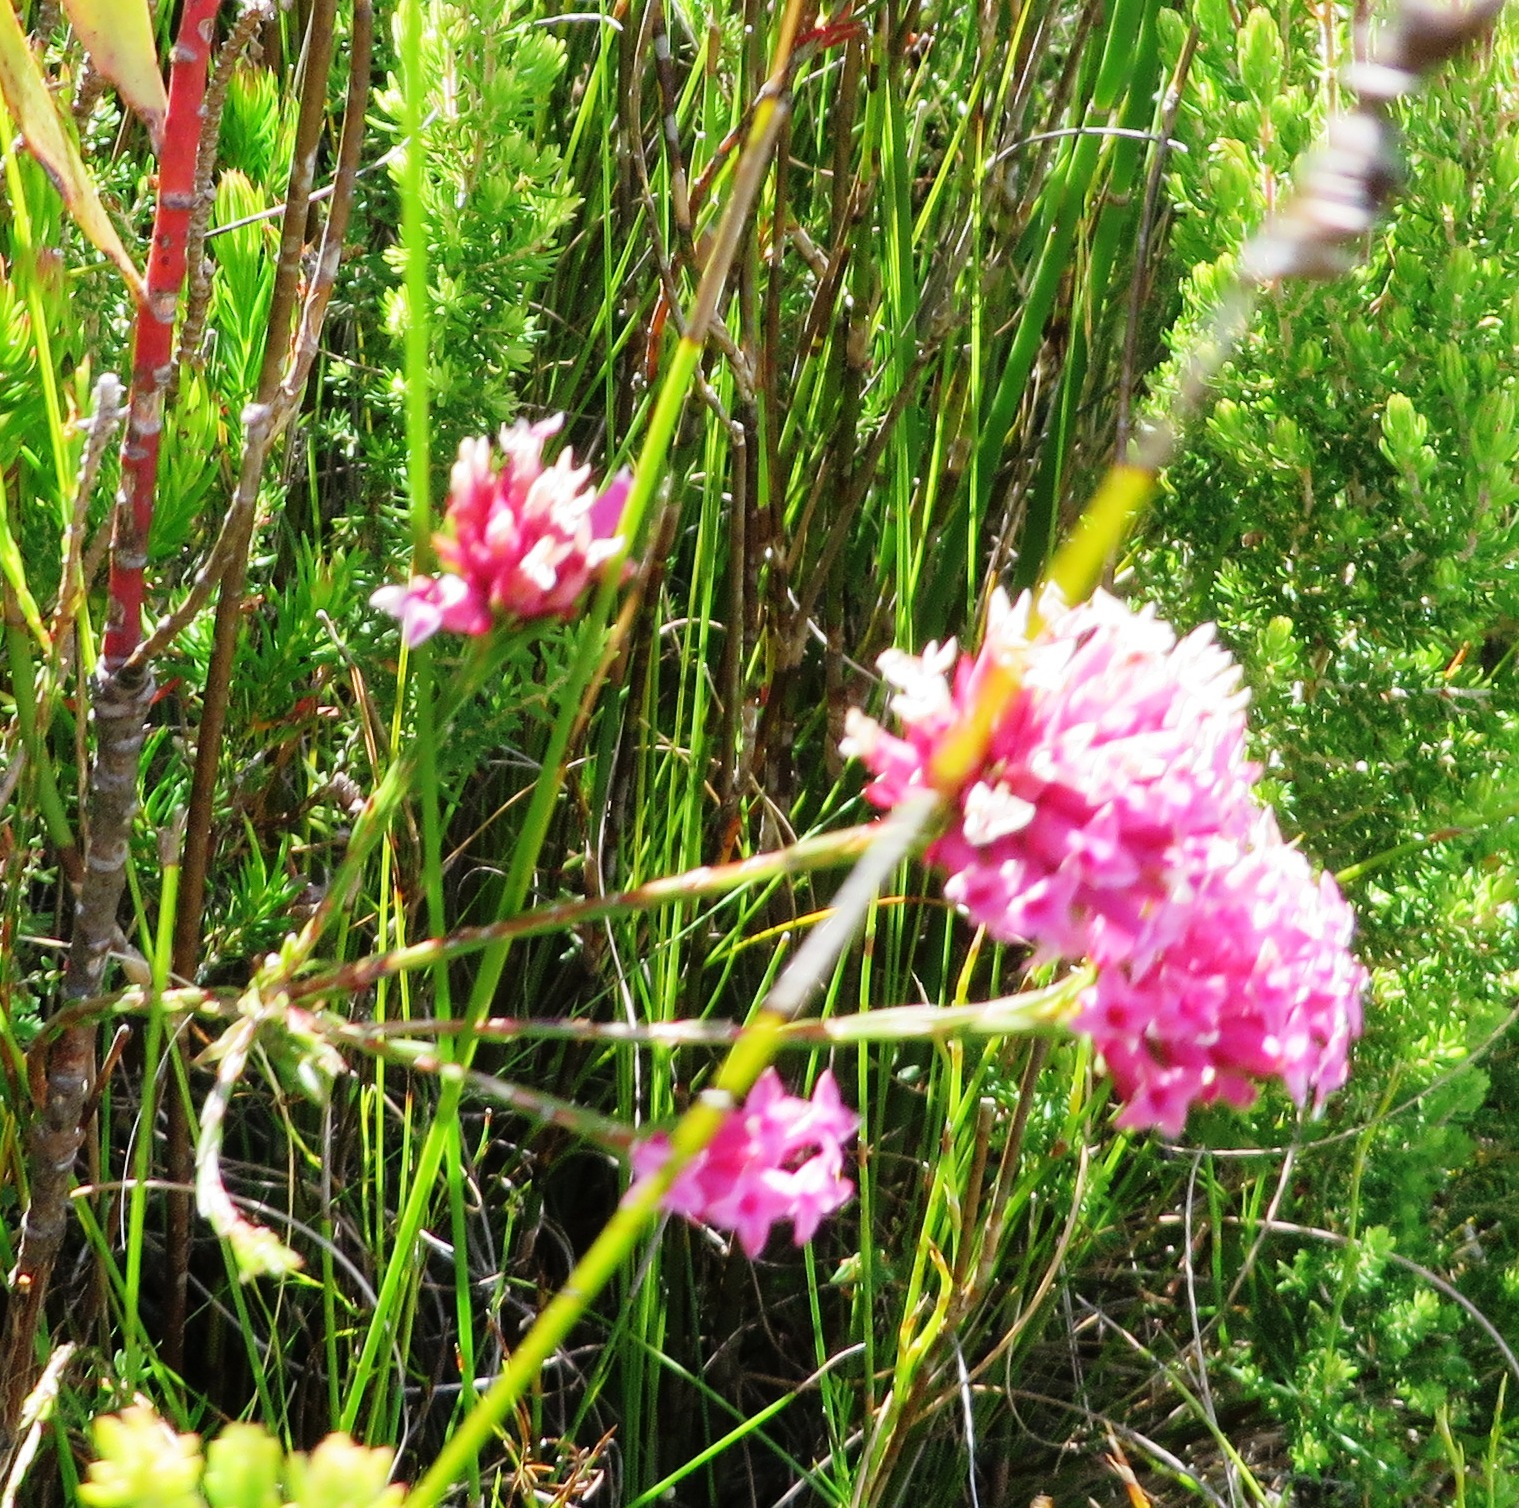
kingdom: Plantae
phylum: Tracheophyta
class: Magnoliopsida
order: Ericales
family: Ericaceae
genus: Erica
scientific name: Erica pycnantha
